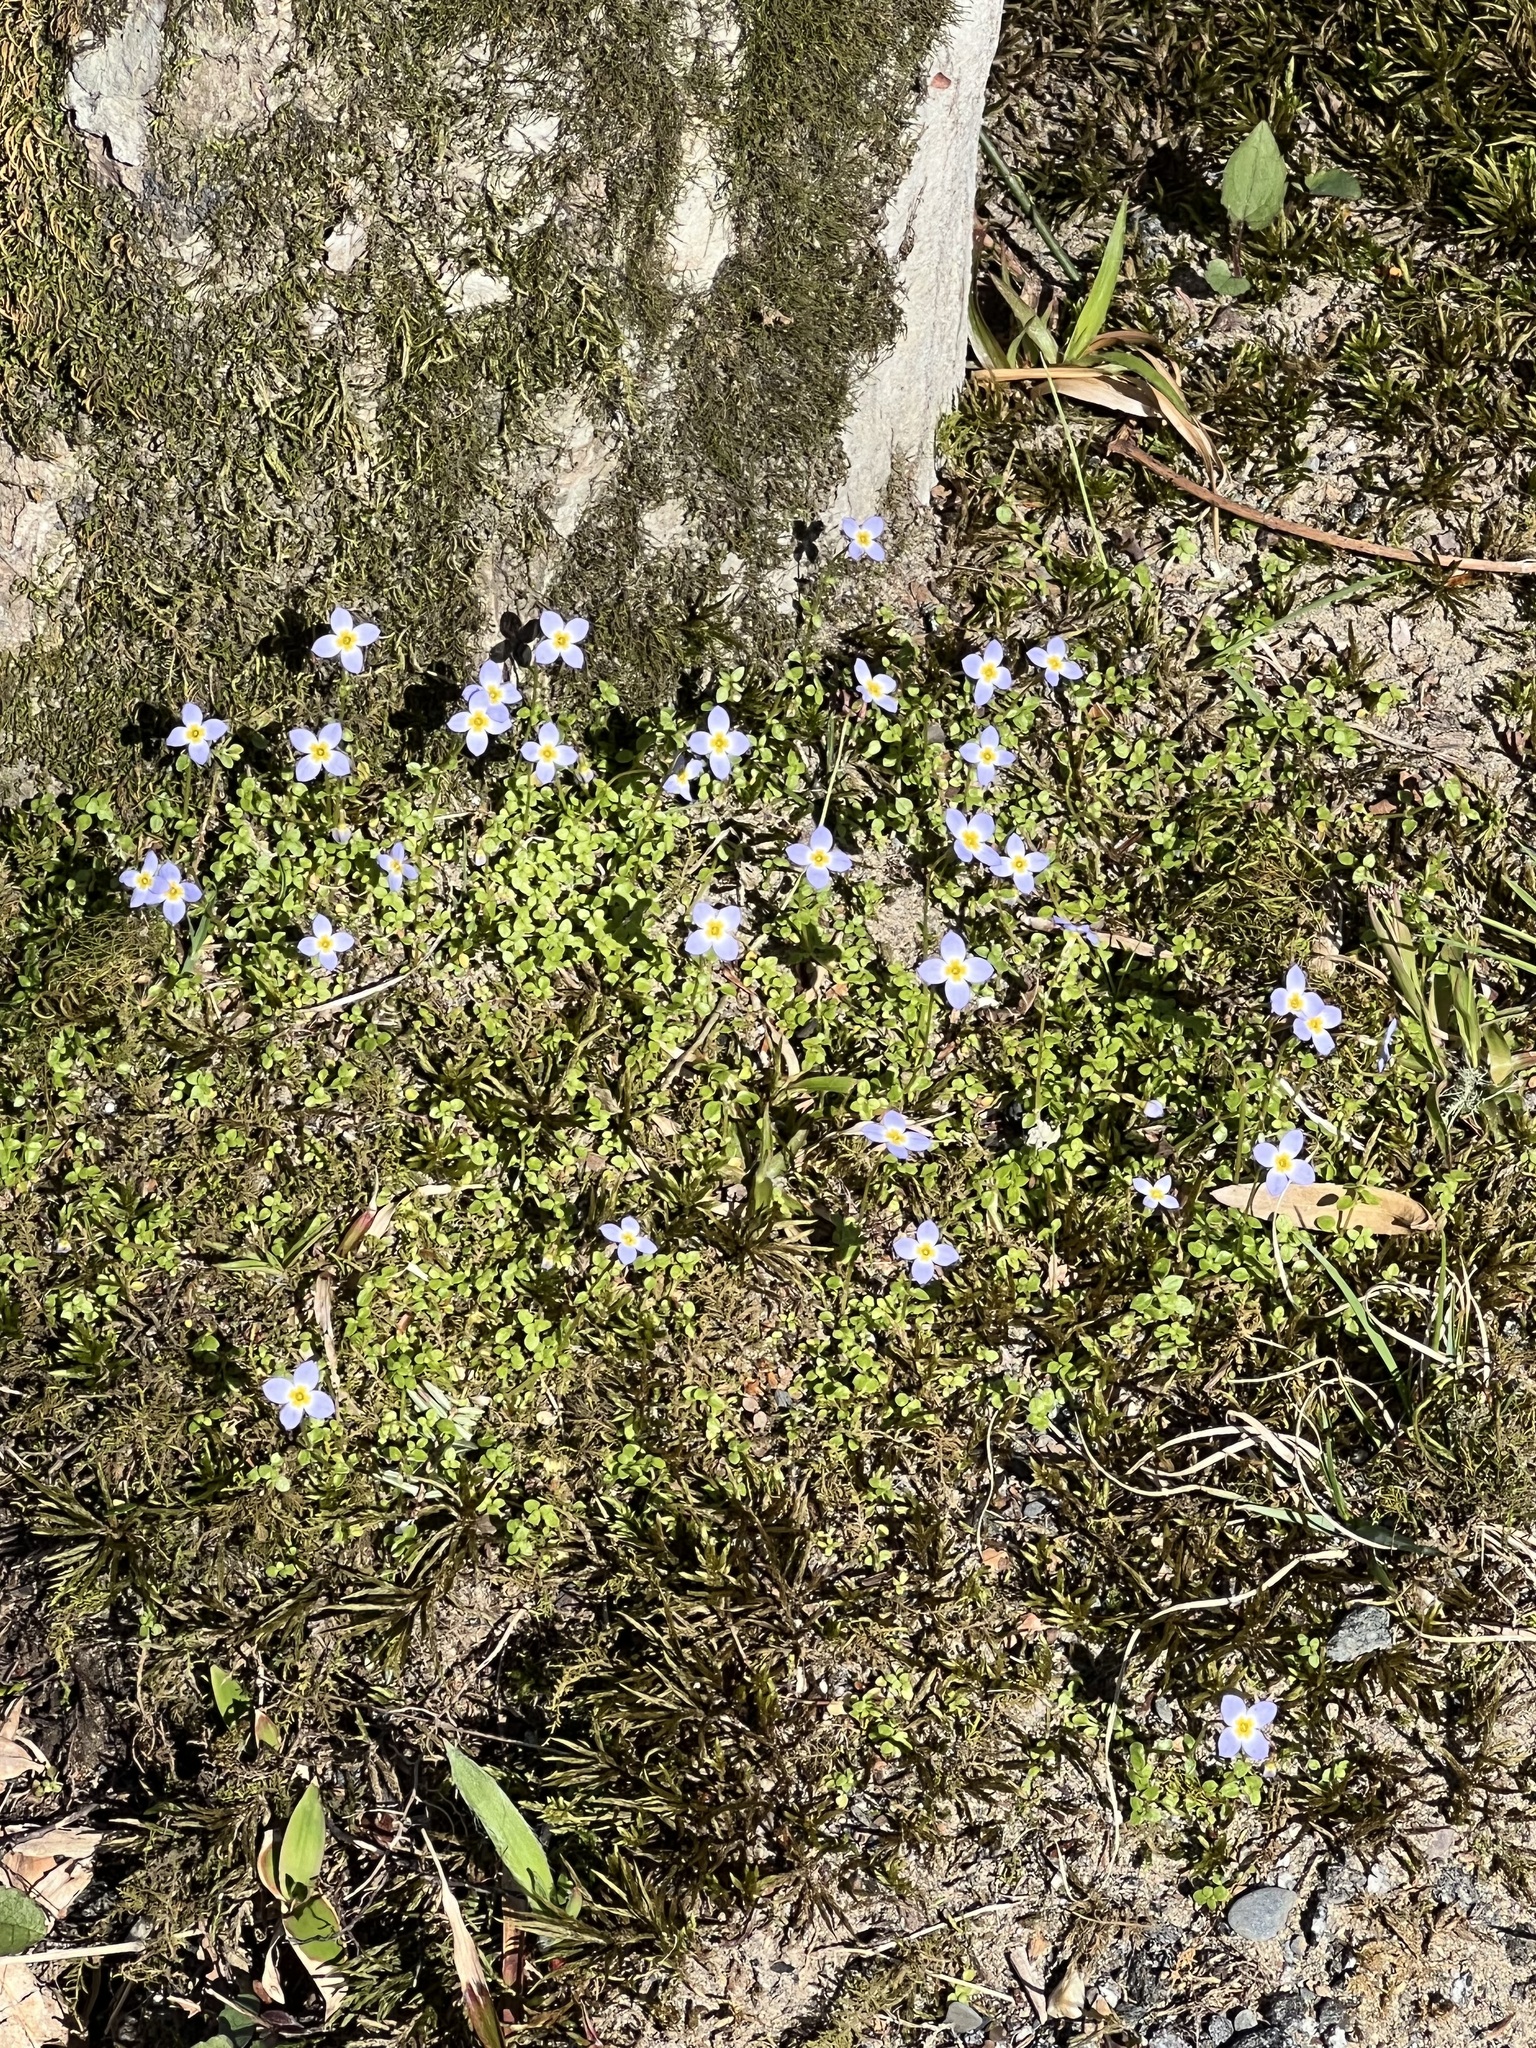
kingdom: Plantae
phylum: Tracheophyta
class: Magnoliopsida
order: Gentianales
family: Rubiaceae
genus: Houstonia
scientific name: Houstonia serpyllifolia
